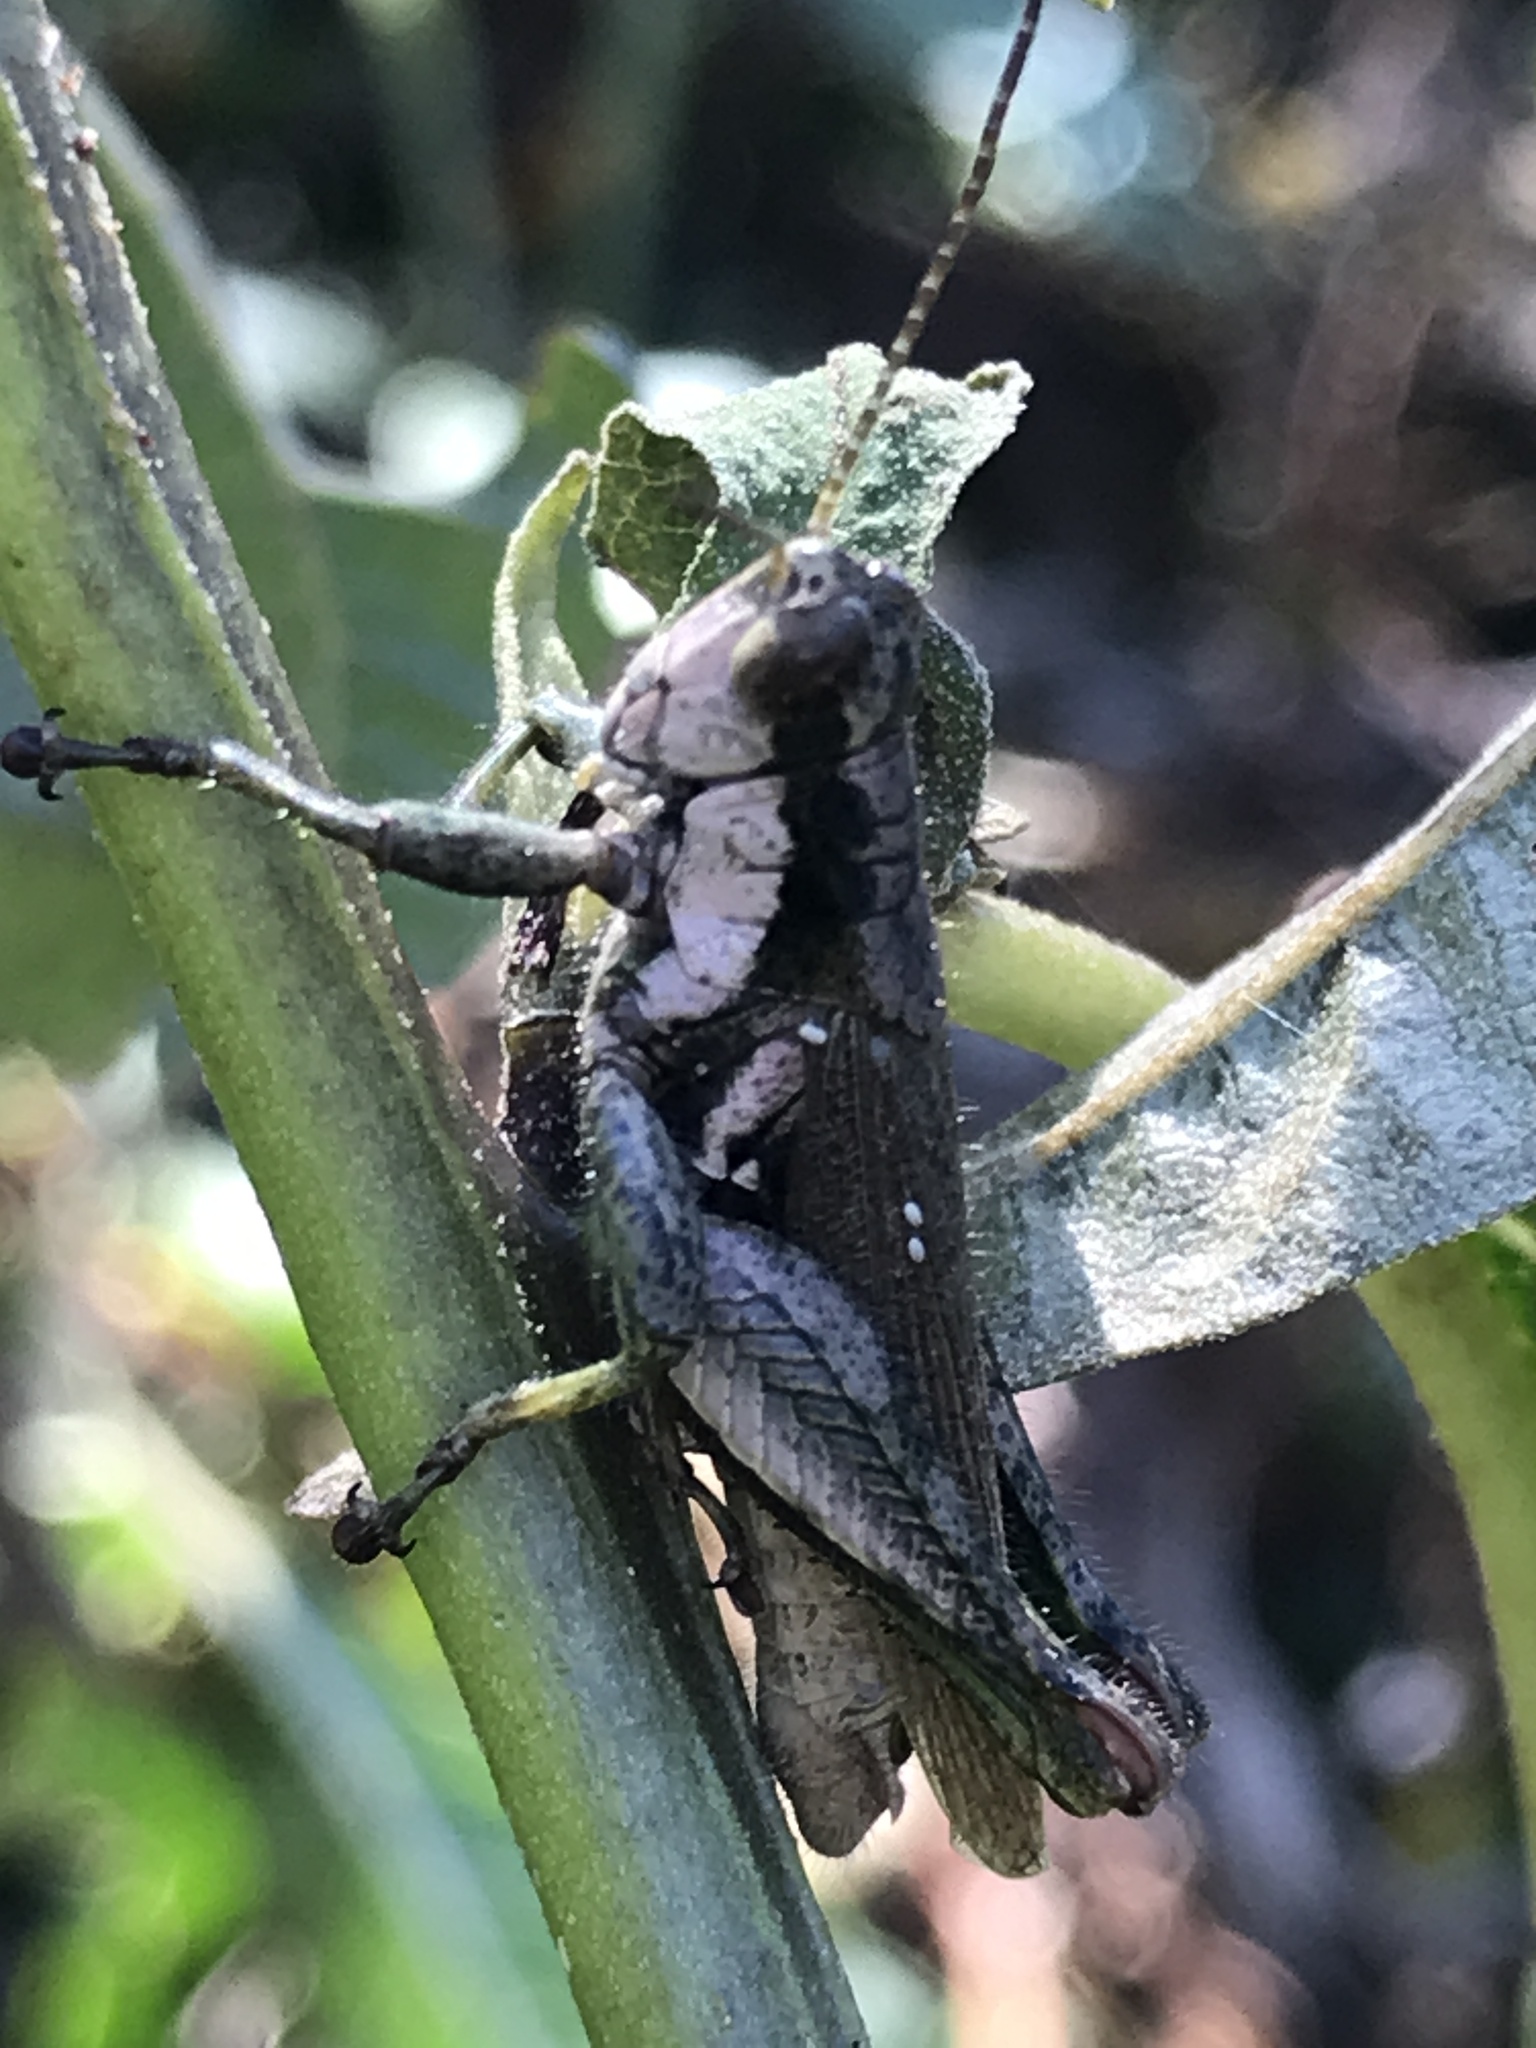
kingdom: Animalia
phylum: Arthropoda
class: Insecta
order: Orthoptera
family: Acrididae
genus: Ronderosia
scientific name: Ronderosia bergii
